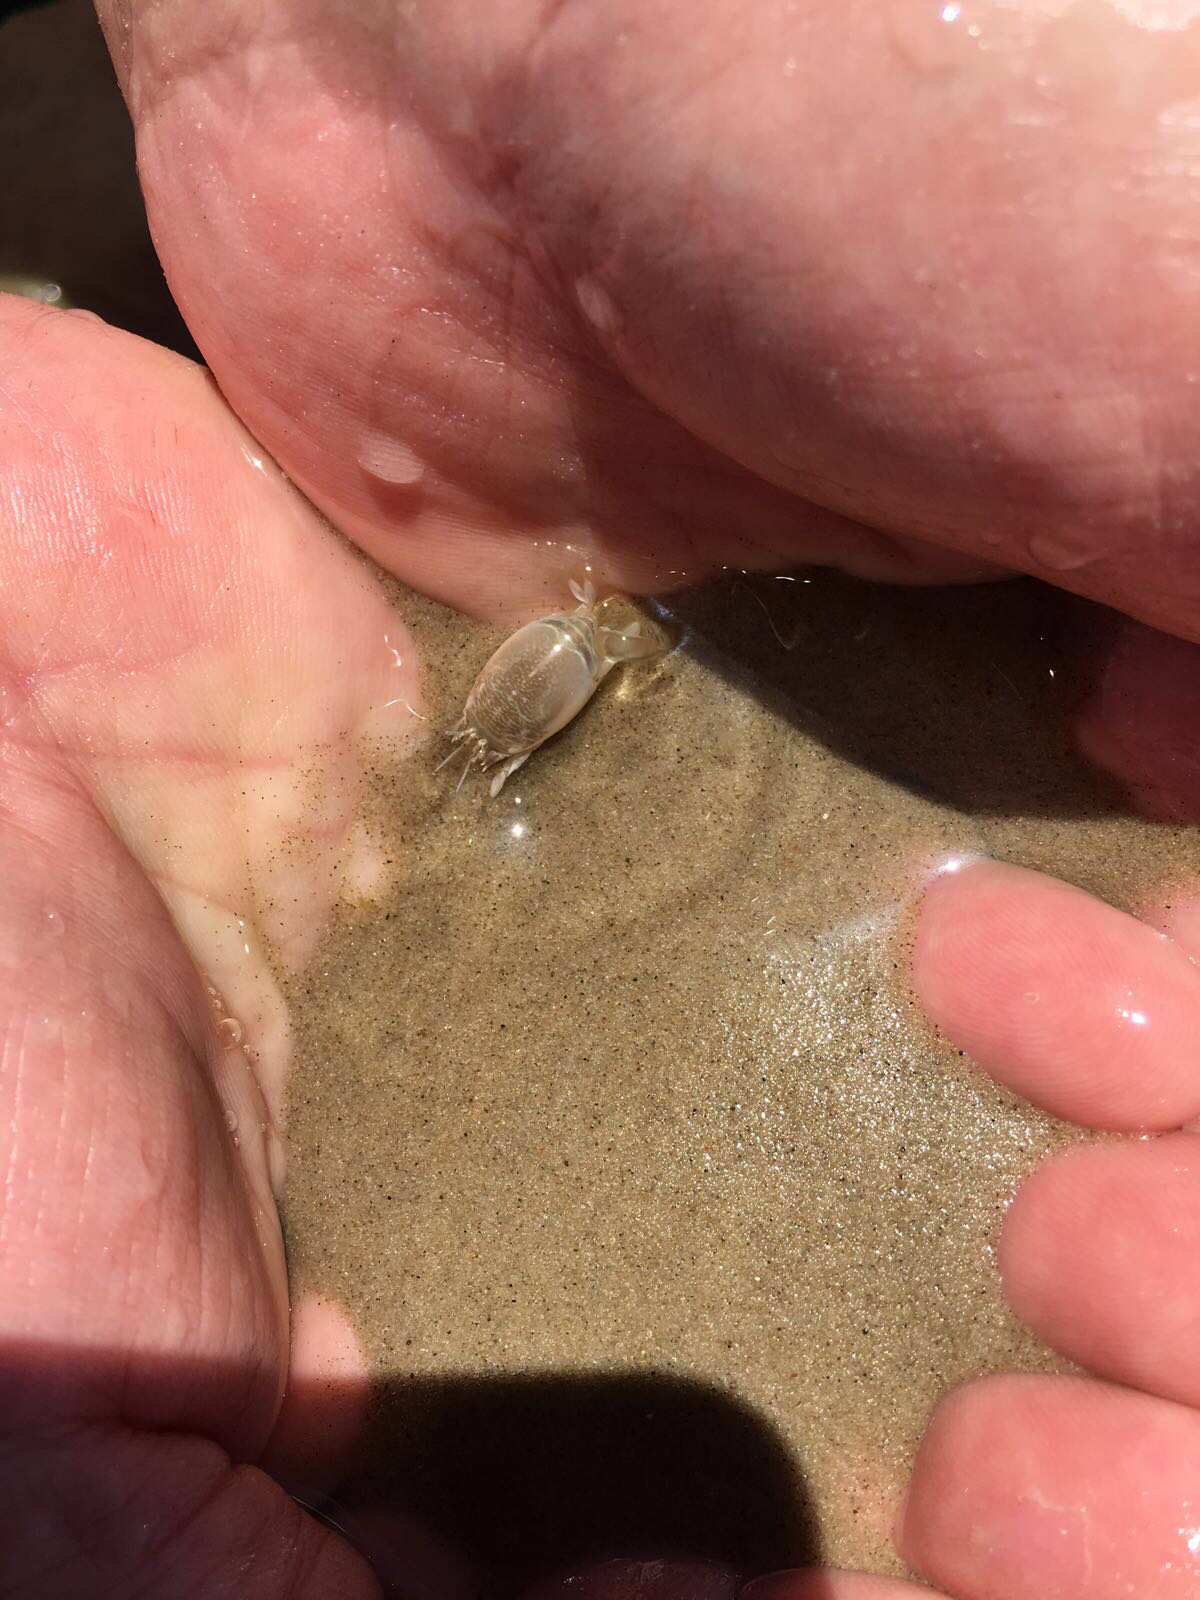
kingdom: Animalia
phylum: Arthropoda
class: Malacostraca
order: Decapoda
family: Hippidae
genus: Emerita
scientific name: Emerita brasiliensis
